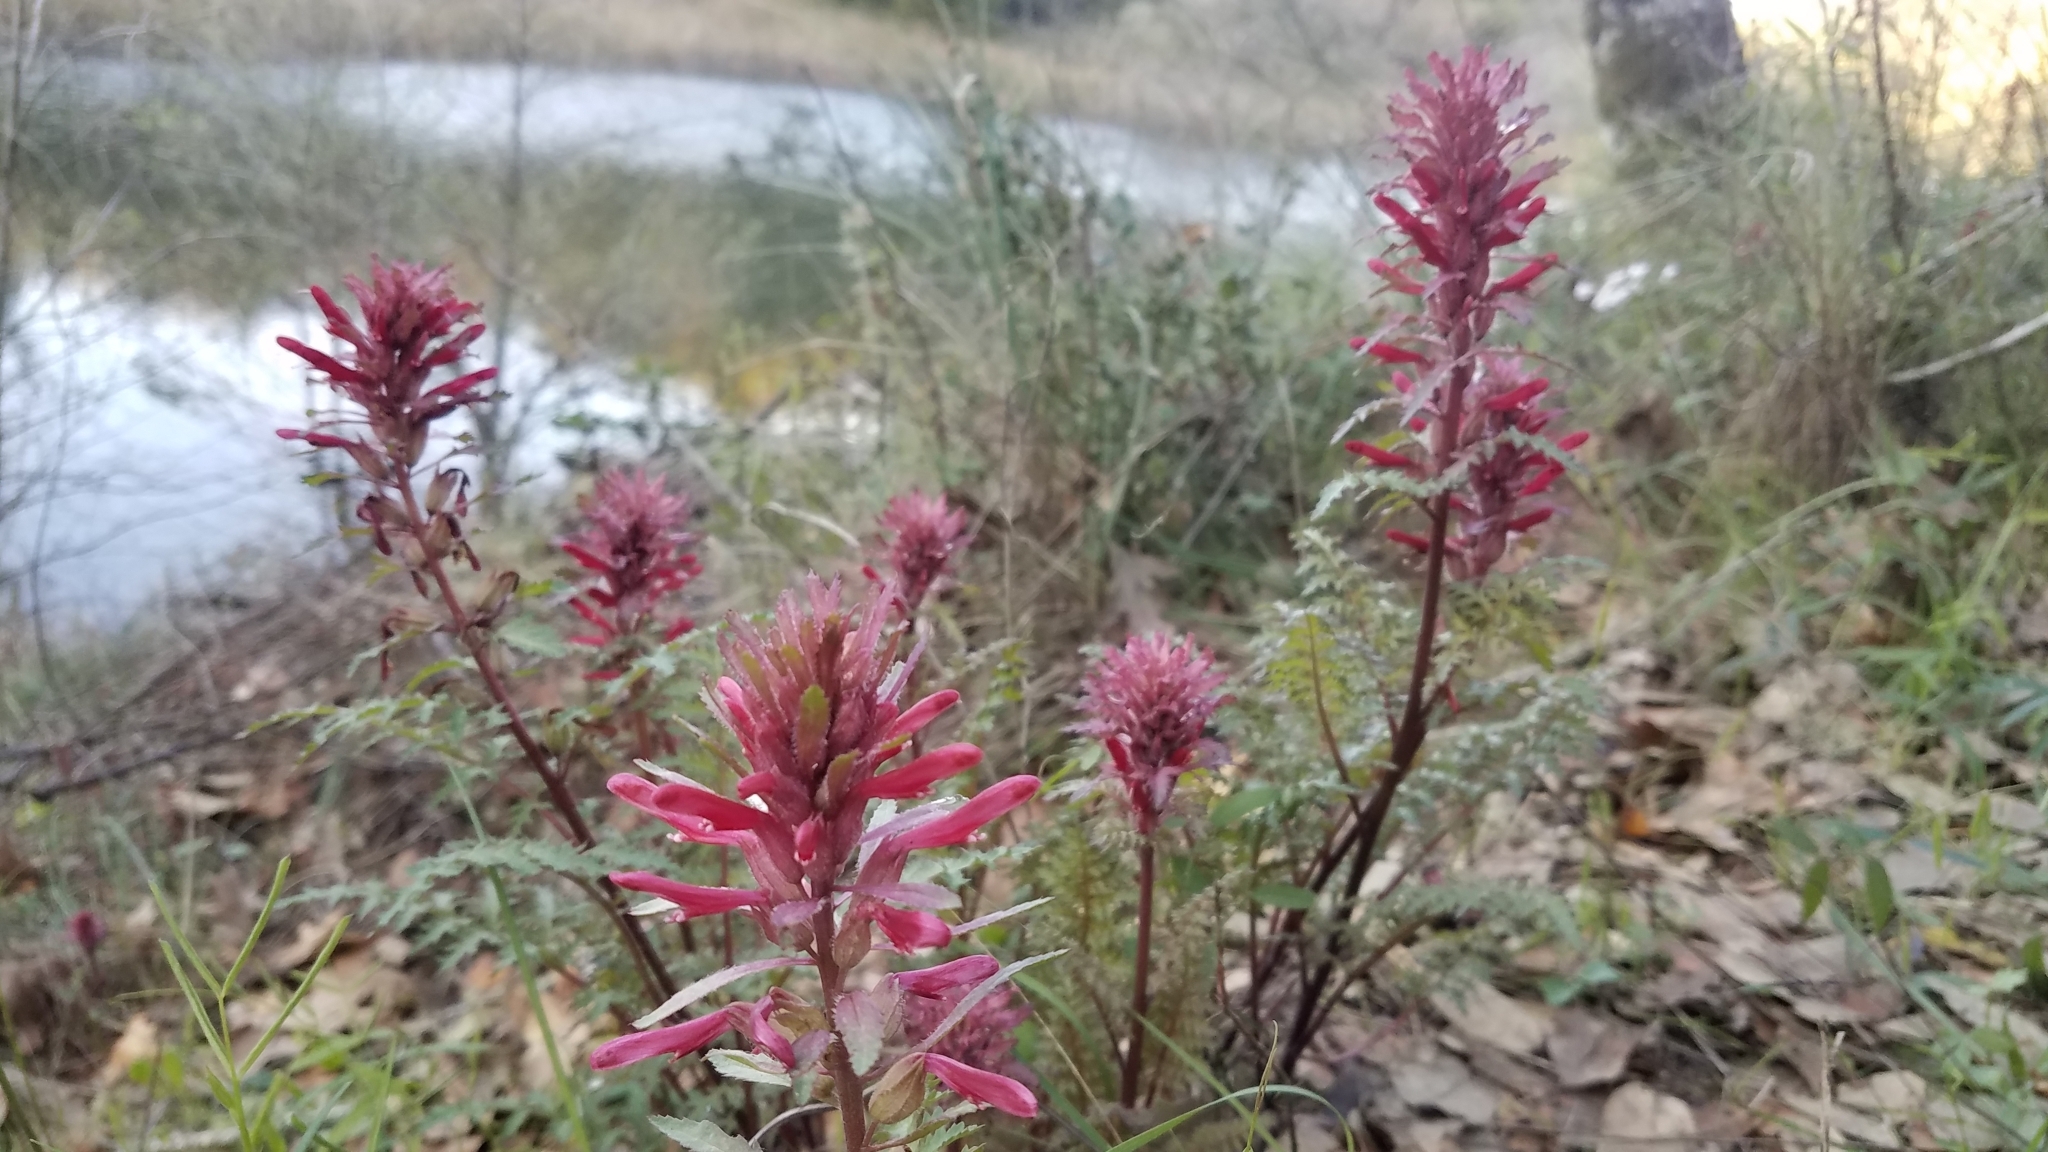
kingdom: Plantae
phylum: Tracheophyta
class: Magnoliopsida
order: Lamiales
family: Orobanchaceae
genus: Pedicularis
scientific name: Pedicularis densiflora
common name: Indian warrior
